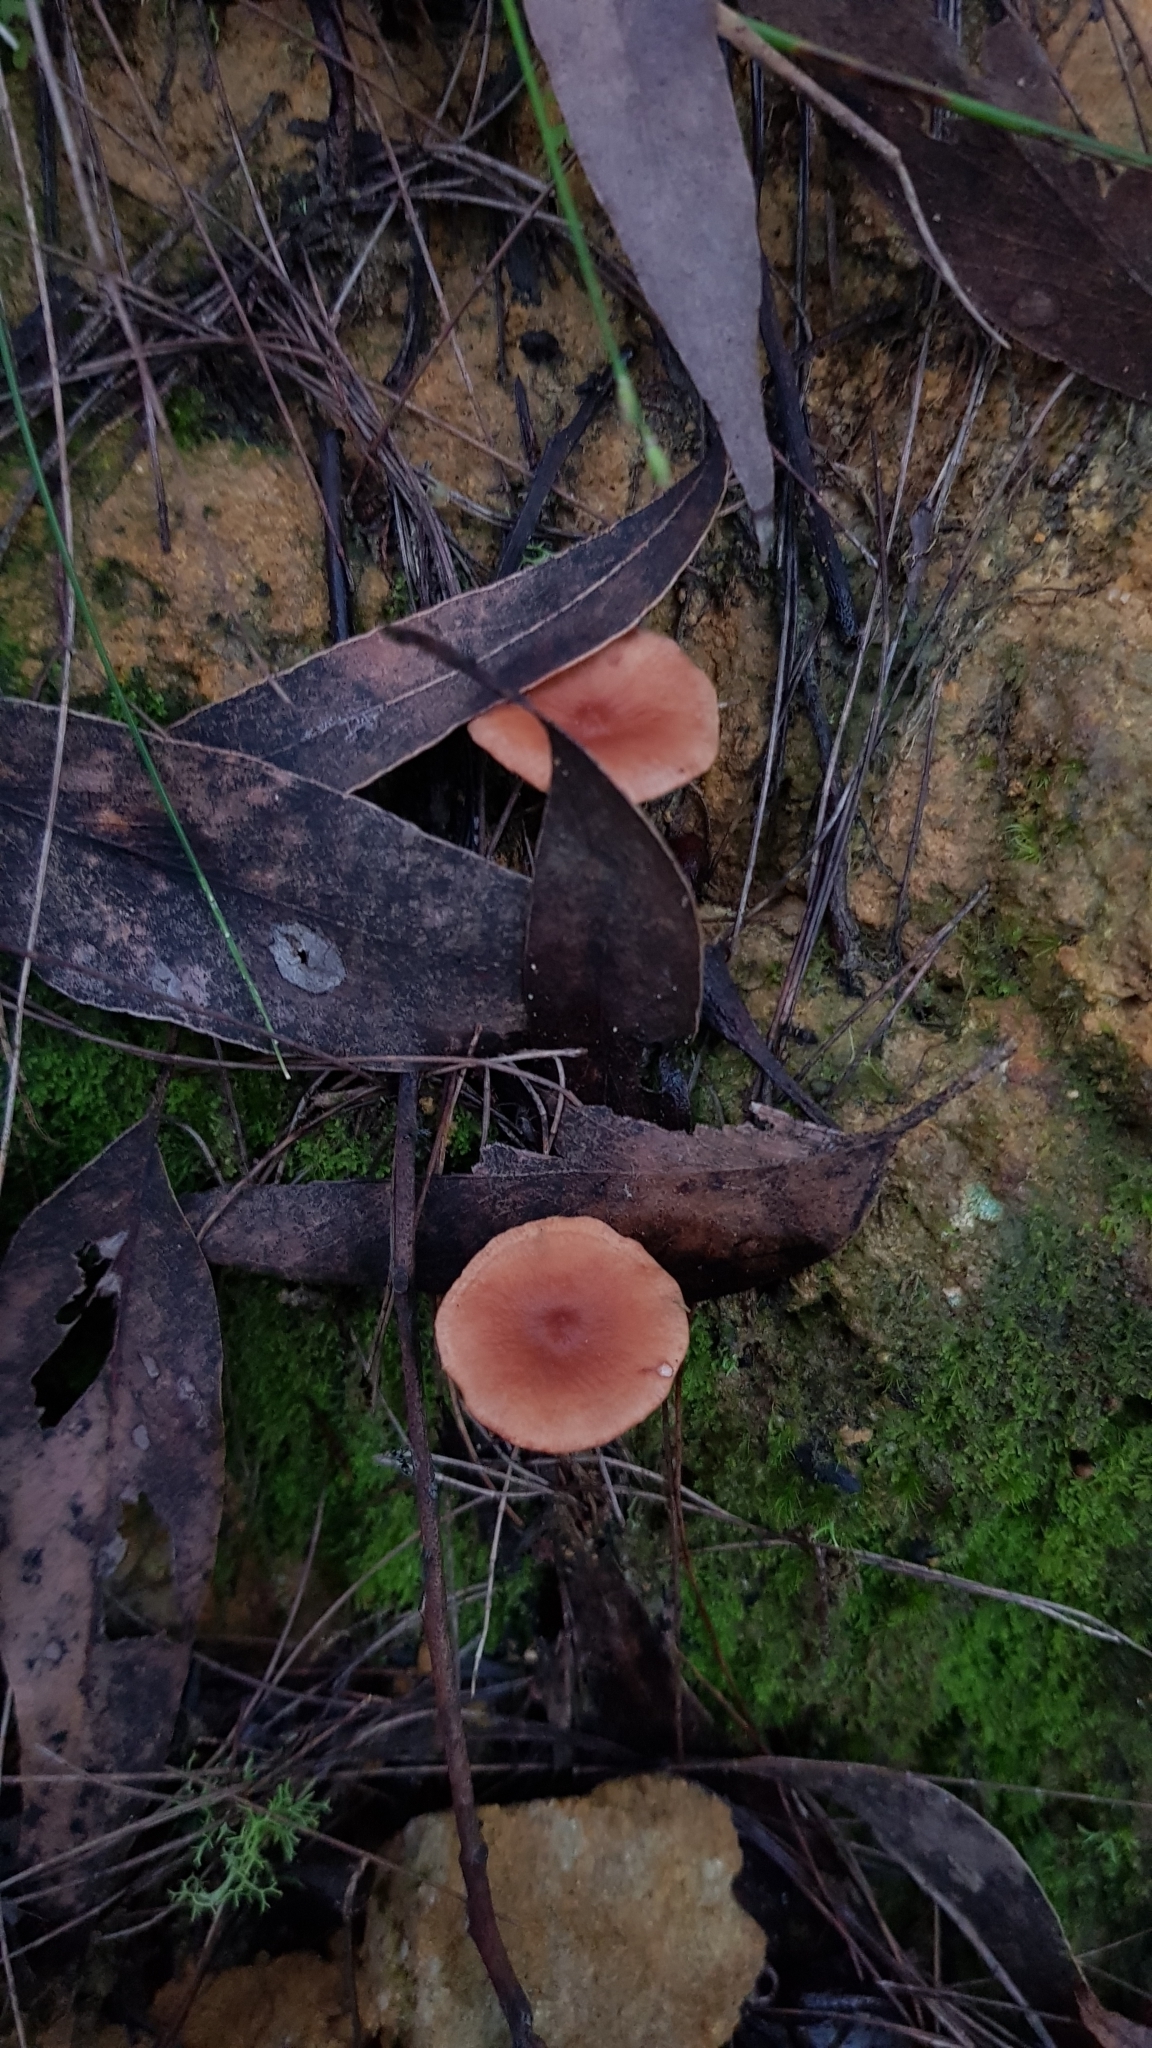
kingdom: Fungi
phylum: Basidiomycota
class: Agaricomycetes
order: Russulales
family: Russulaceae
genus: Lactarius
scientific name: Lactarius eucalypti
